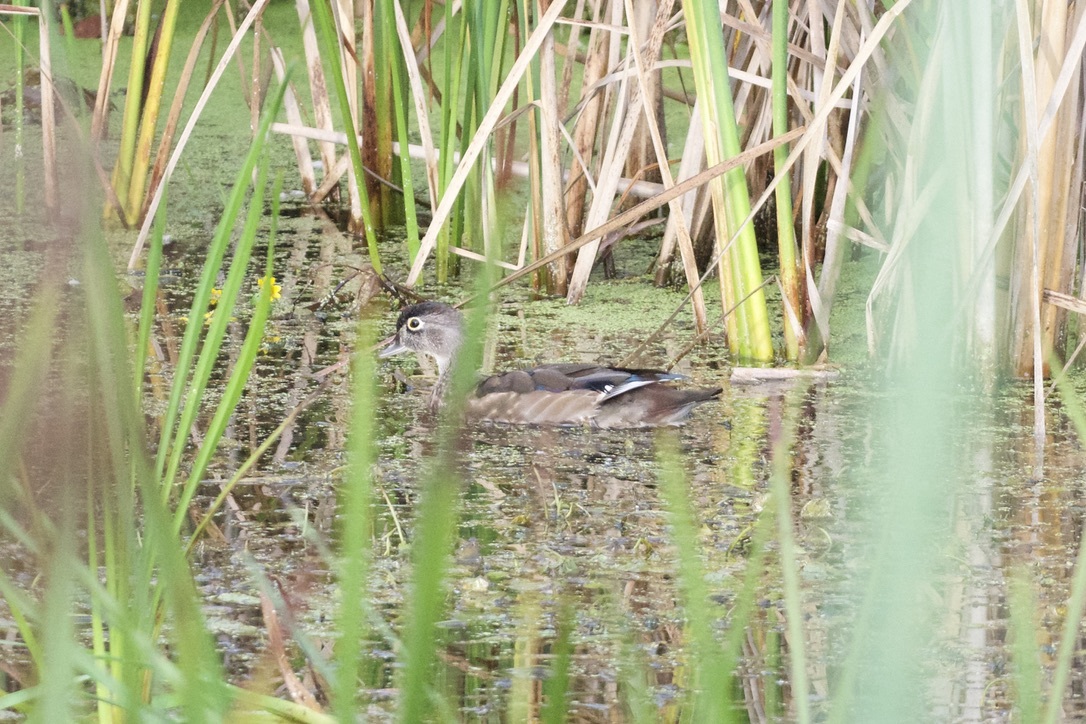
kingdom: Animalia
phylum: Chordata
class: Aves
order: Anseriformes
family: Anatidae
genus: Aix
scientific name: Aix sponsa
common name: Wood duck
